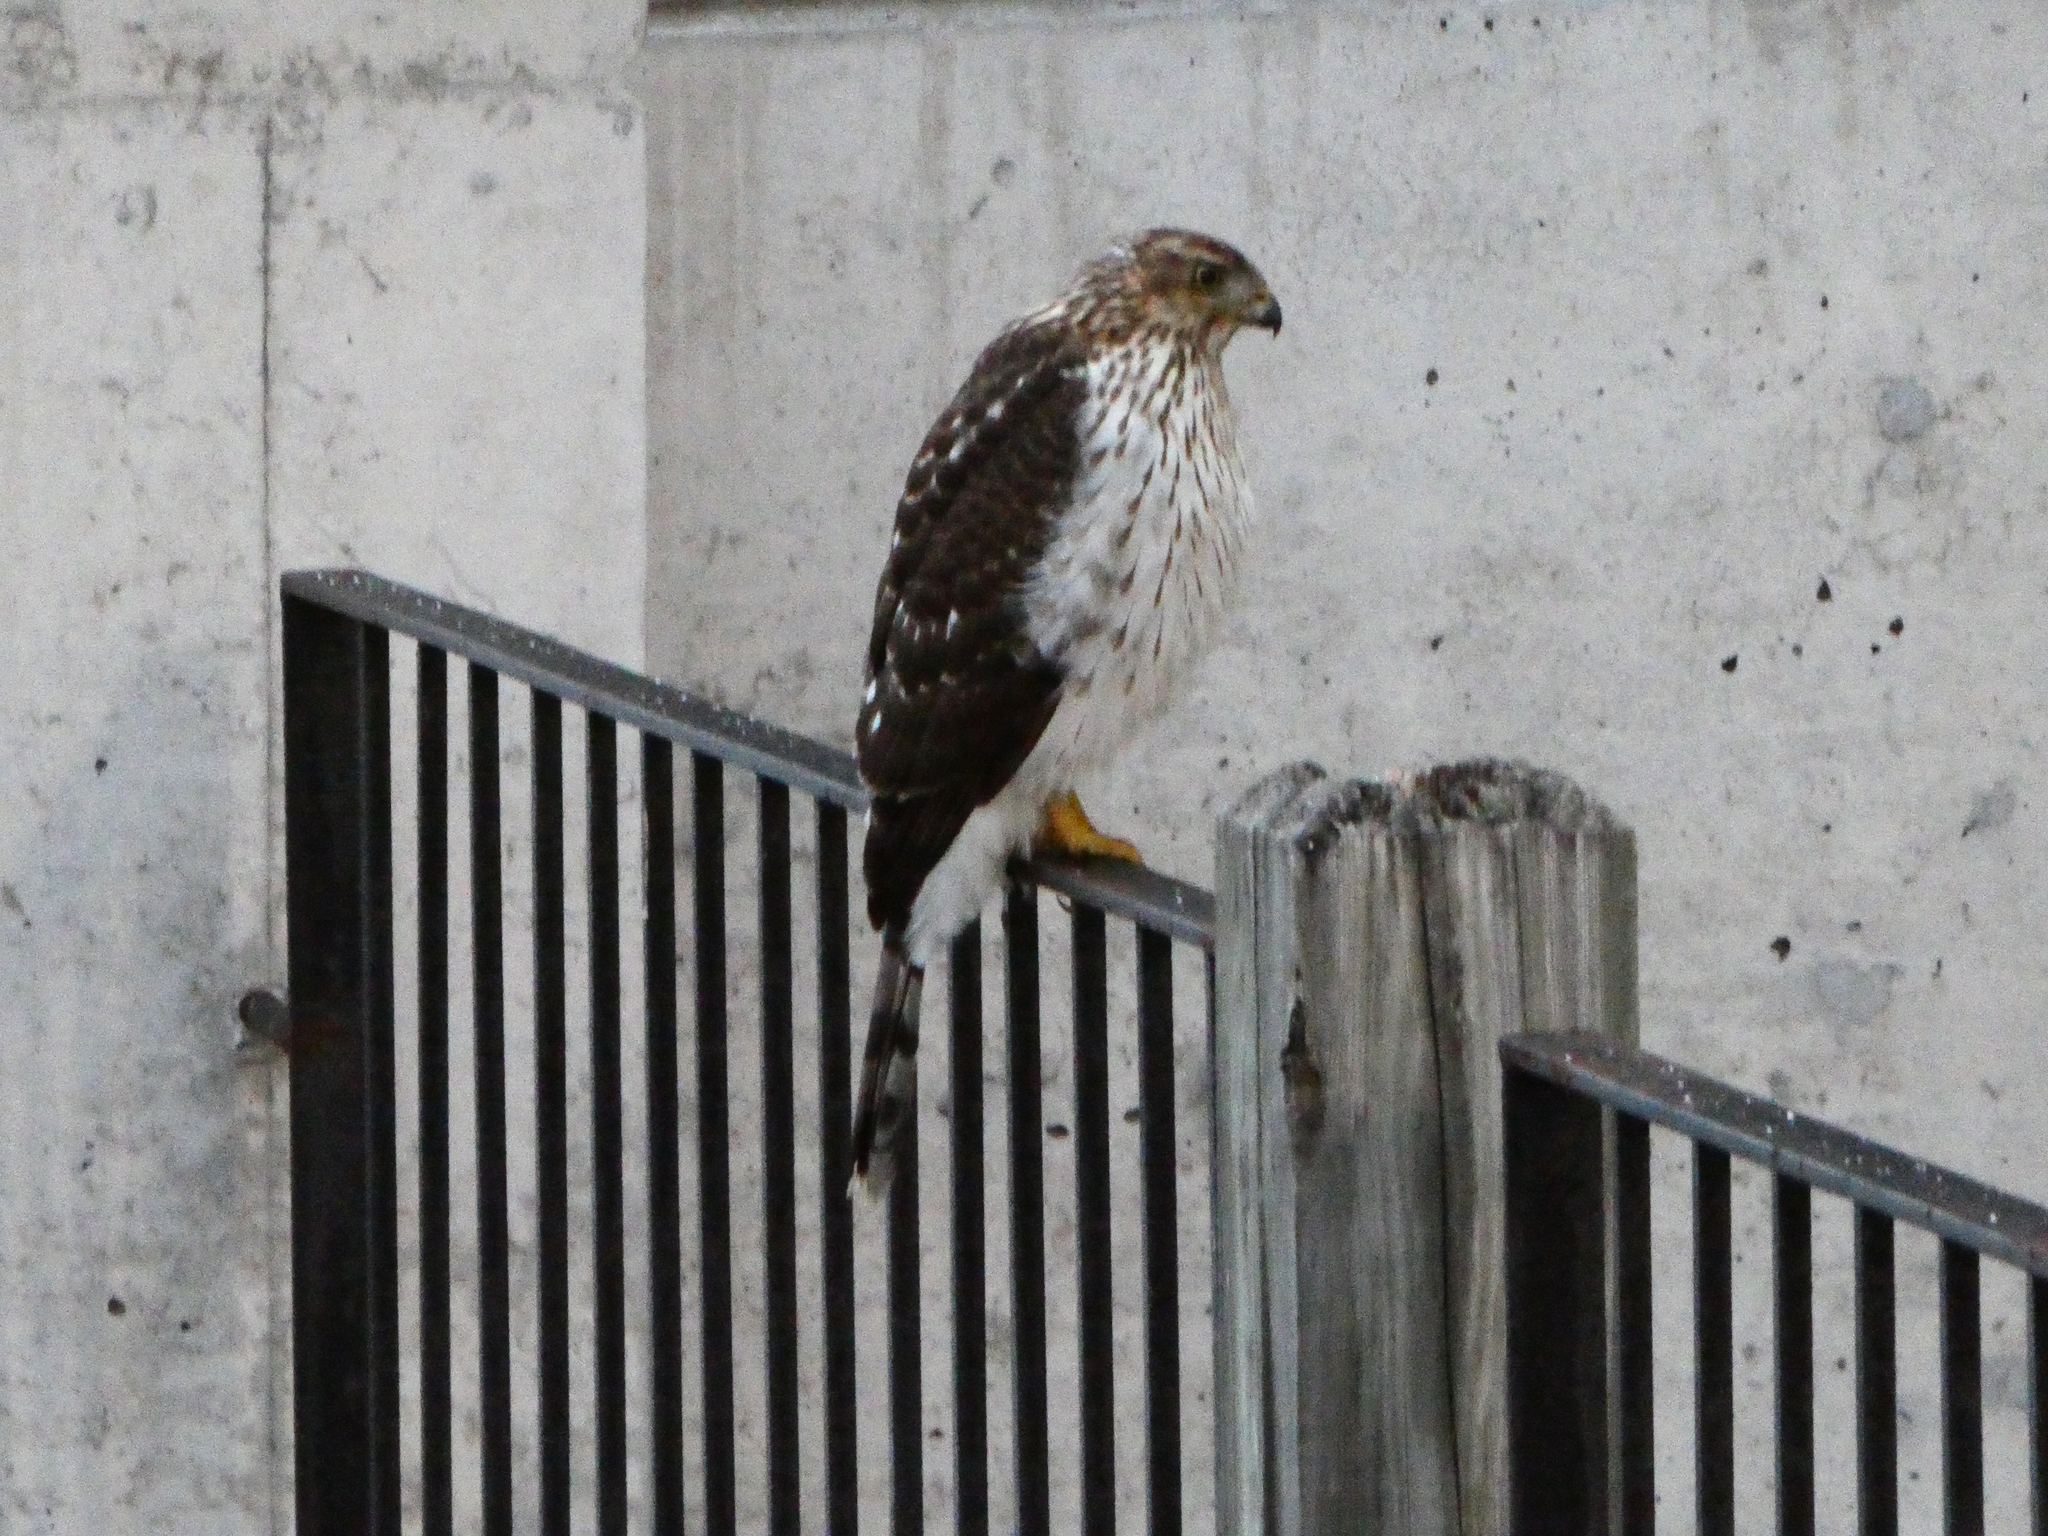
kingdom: Animalia
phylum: Chordata
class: Aves
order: Accipitriformes
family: Accipitridae
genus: Accipiter
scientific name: Accipiter cooperii
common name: Cooper's hawk
